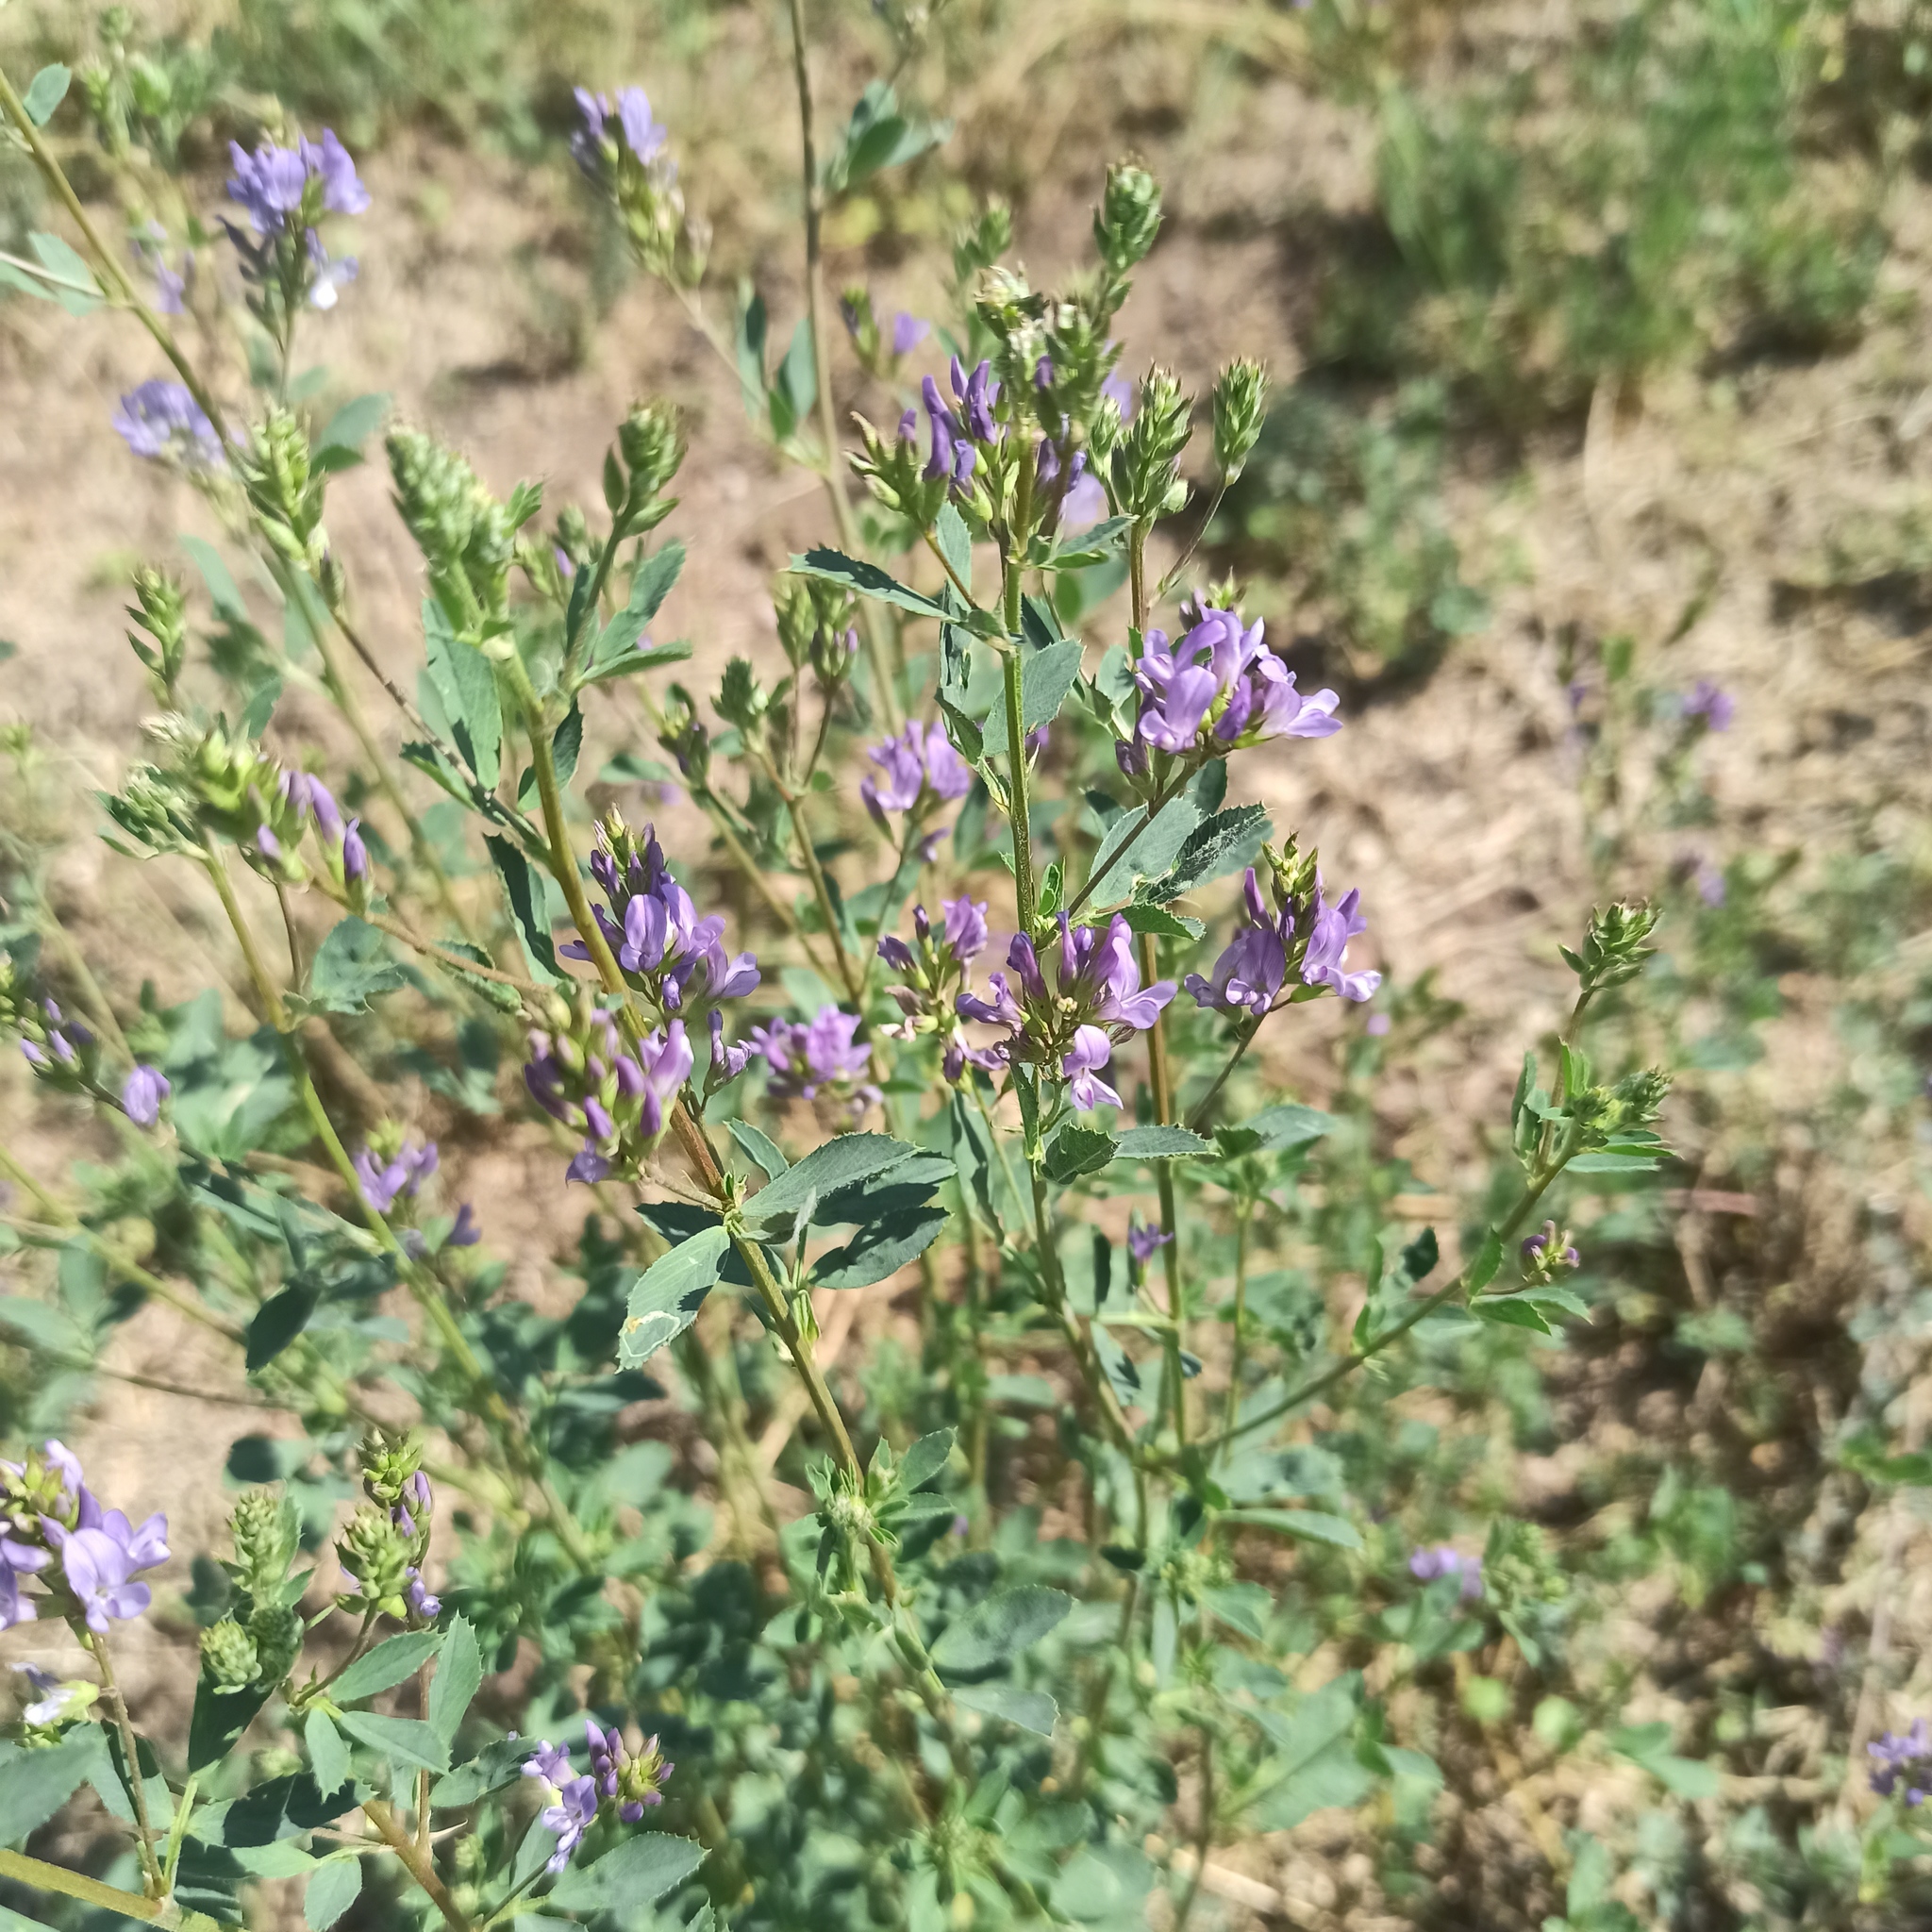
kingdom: Plantae
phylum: Tracheophyta
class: Magnoliopsida
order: Fabales
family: Fabaceae
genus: Medicago
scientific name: Medicago sativa
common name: Alfalfa
